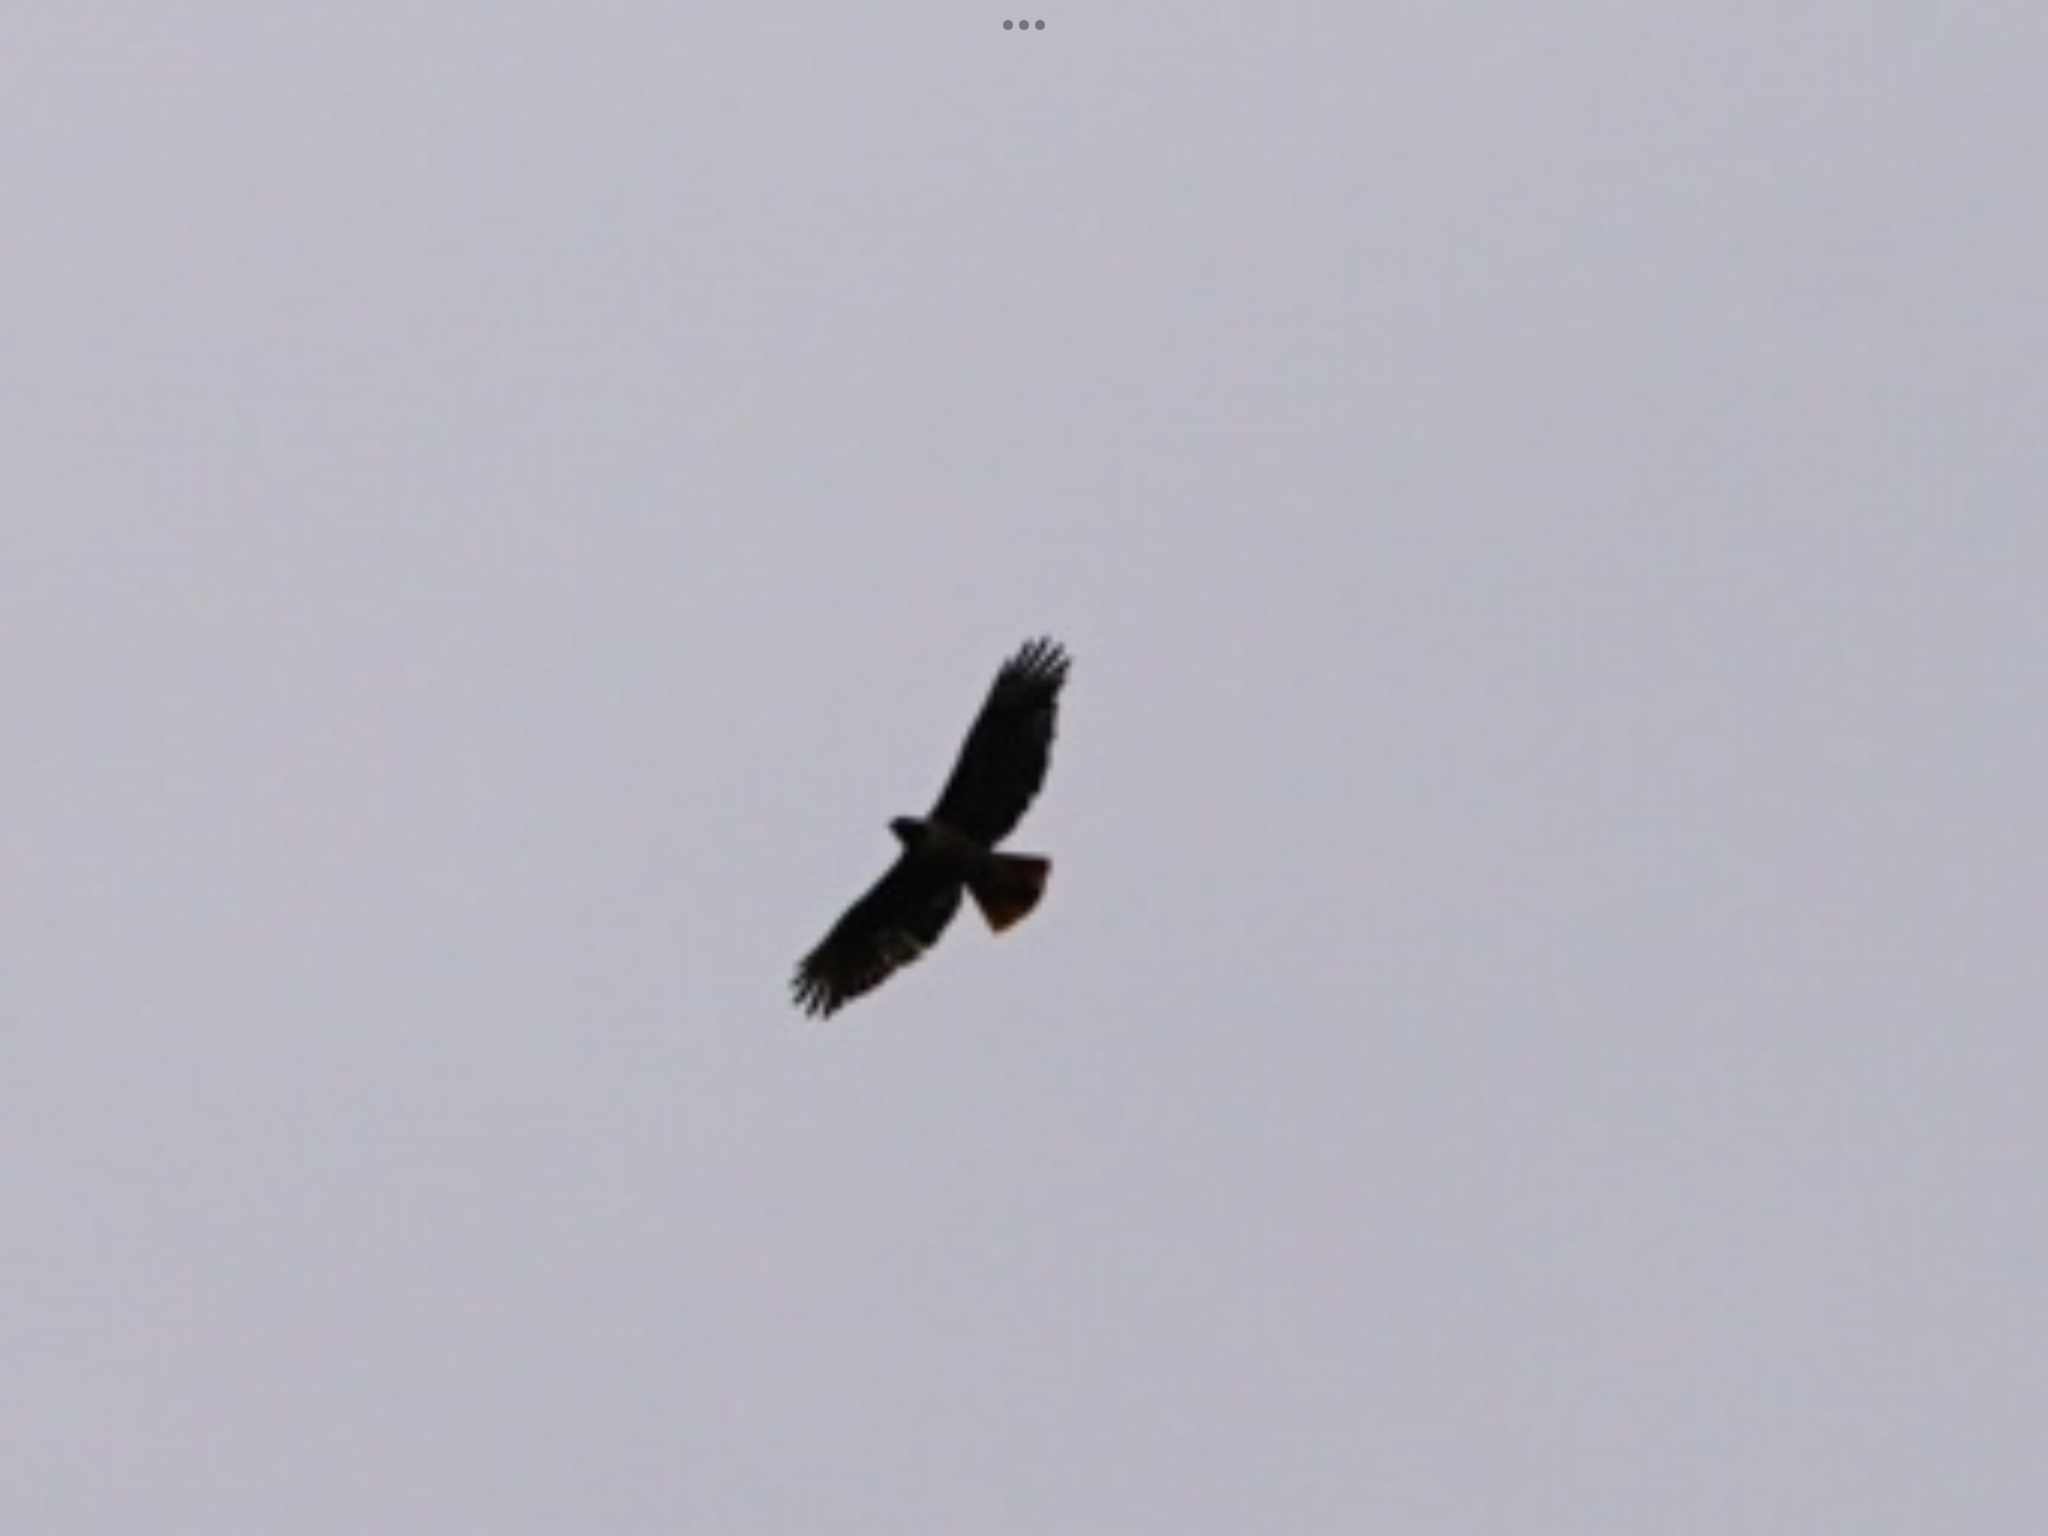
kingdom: Animalia
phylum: Chordata
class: Aves
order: Accipitriformes
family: Accipitridae
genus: Buteo
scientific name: Buteo jamaicensis
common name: Red-tailed hawk
